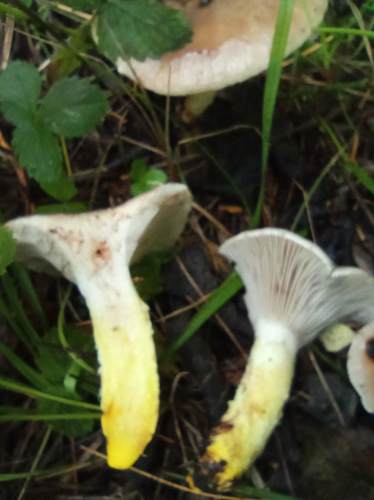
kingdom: Fungi
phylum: Basidiomycota
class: Agaricomycetes
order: Boletales
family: Gomphidiaceae
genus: Gomphidius
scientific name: Gomphidius glutinosus
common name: Slimy spike
